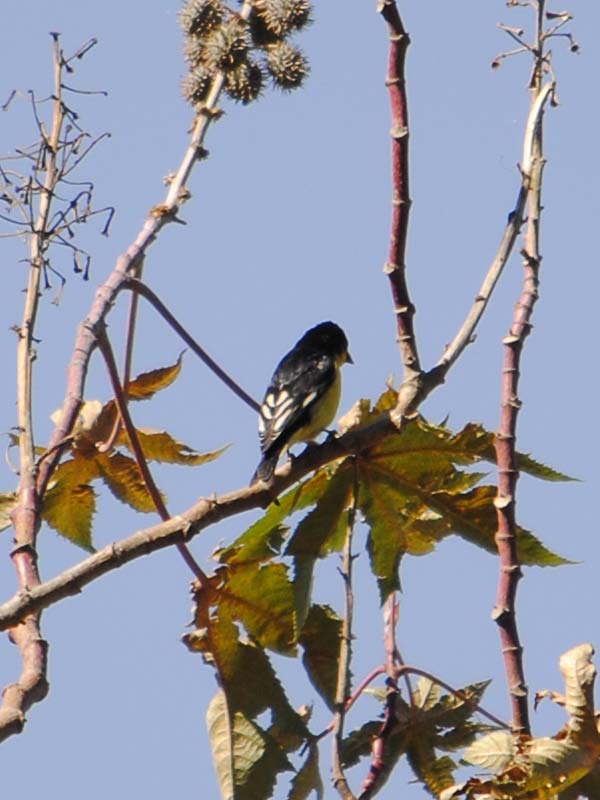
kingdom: Animalia
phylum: Chordata
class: Aves
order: Passeriformes
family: Fringillidae
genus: Spinus
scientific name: Spinus psaltria
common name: Lesser goldfinch
